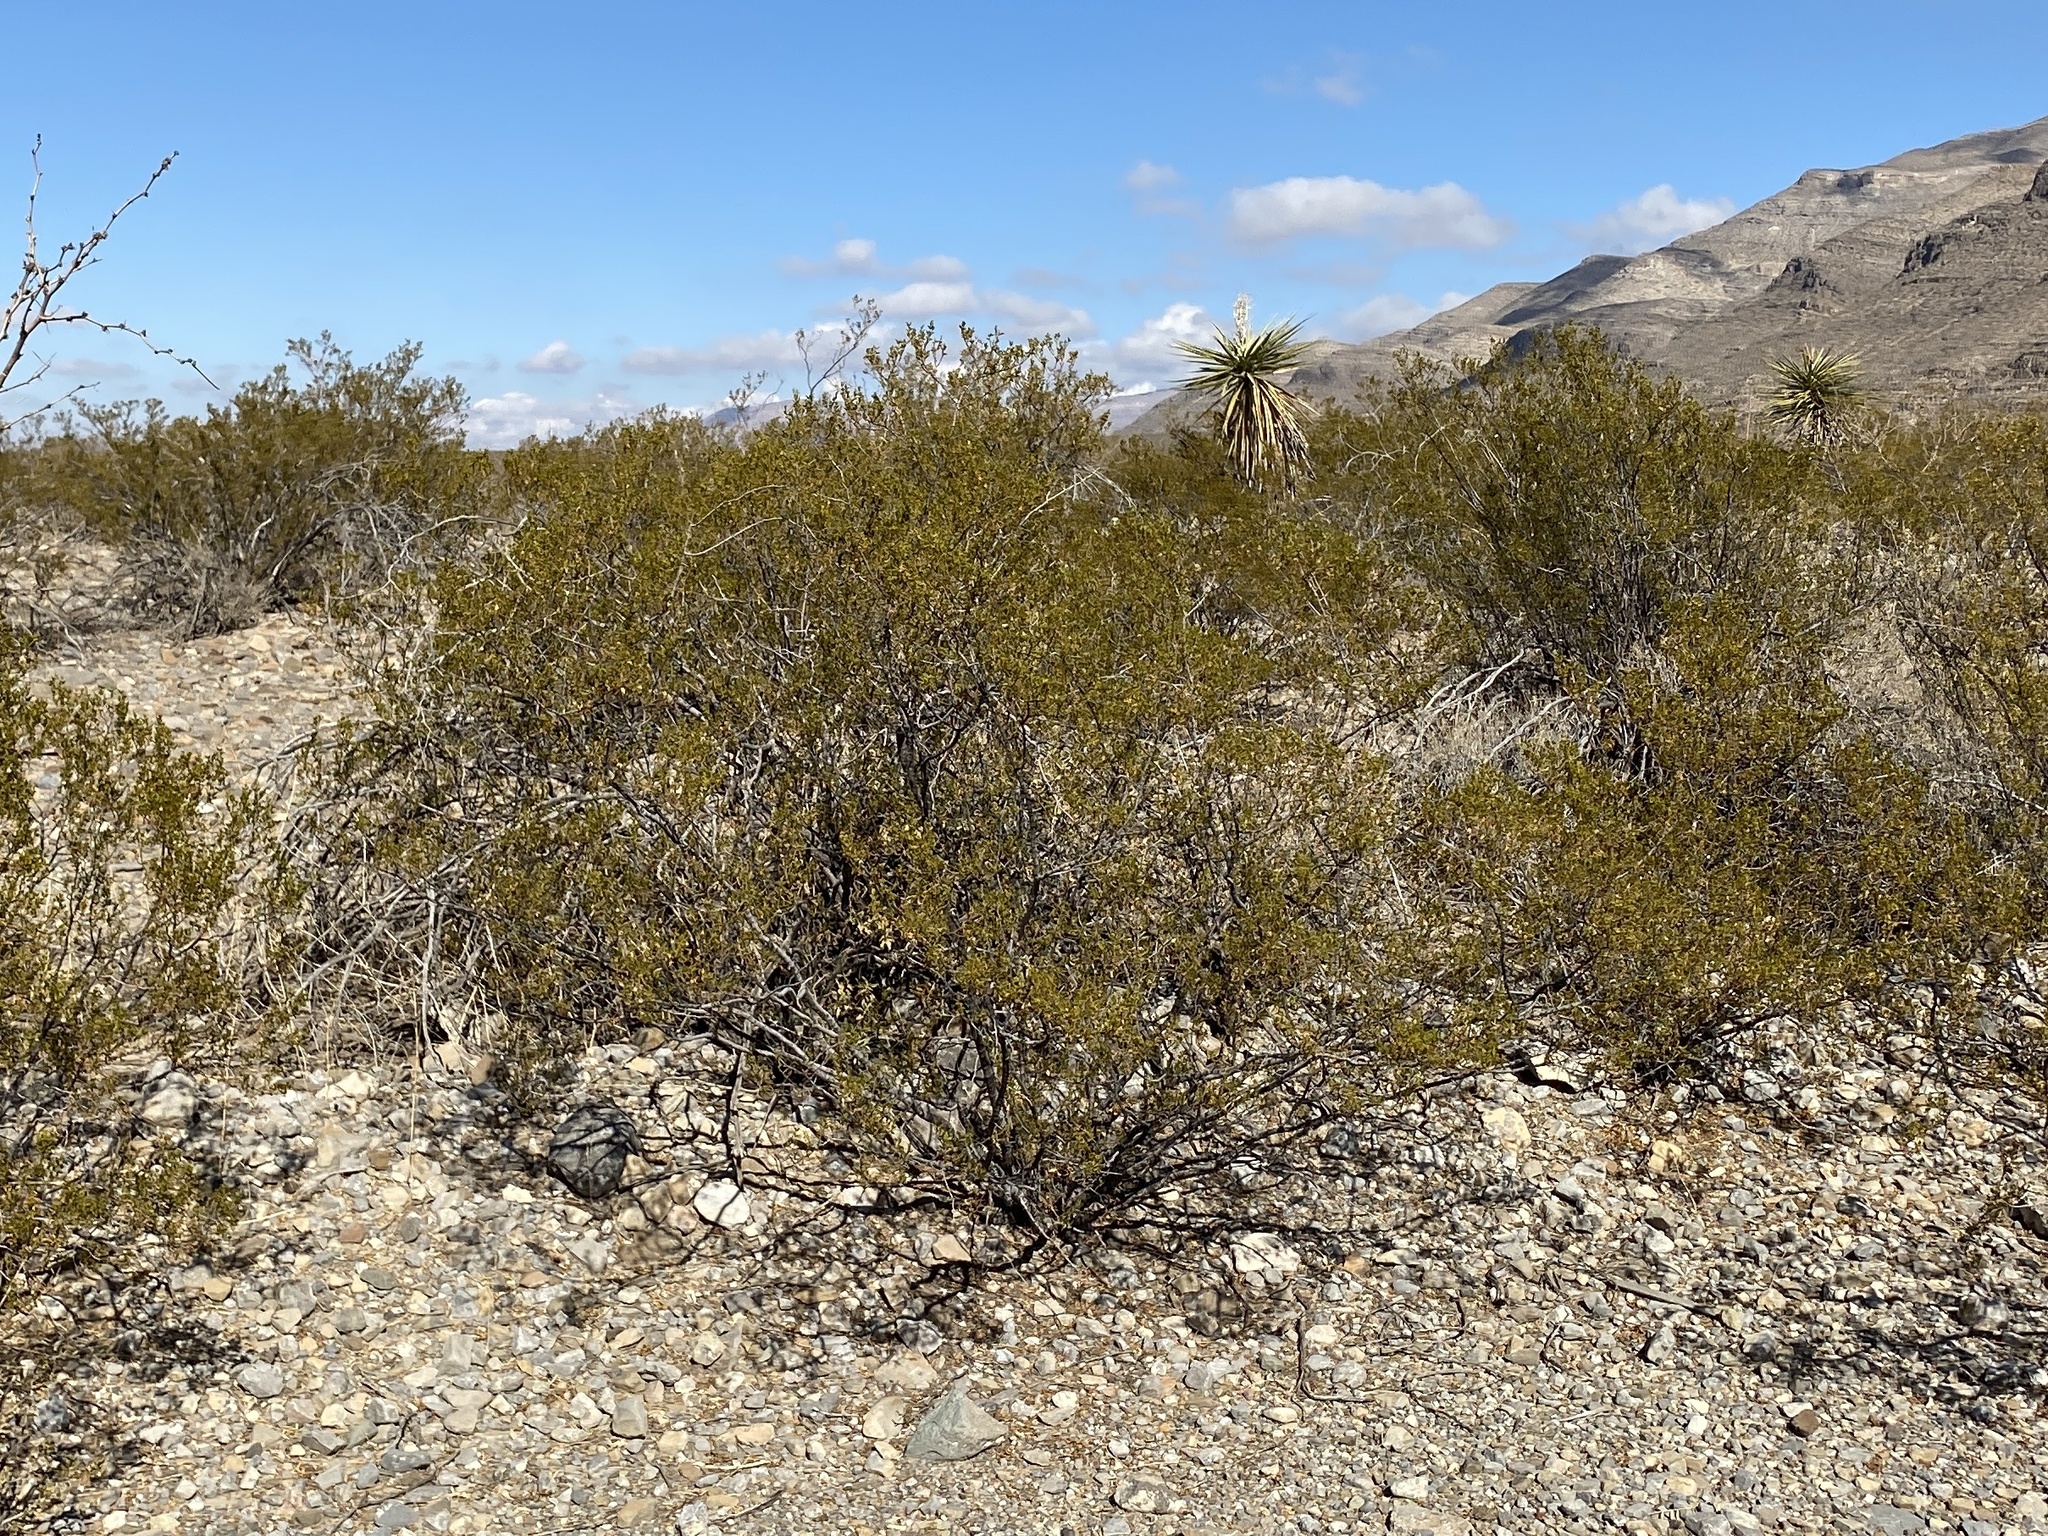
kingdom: Plantae
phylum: Tracheophyta
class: Magnoliopsida
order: Zygophyllales
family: Zygophyllaceae
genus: Larrea
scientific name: Larrea tridentata
